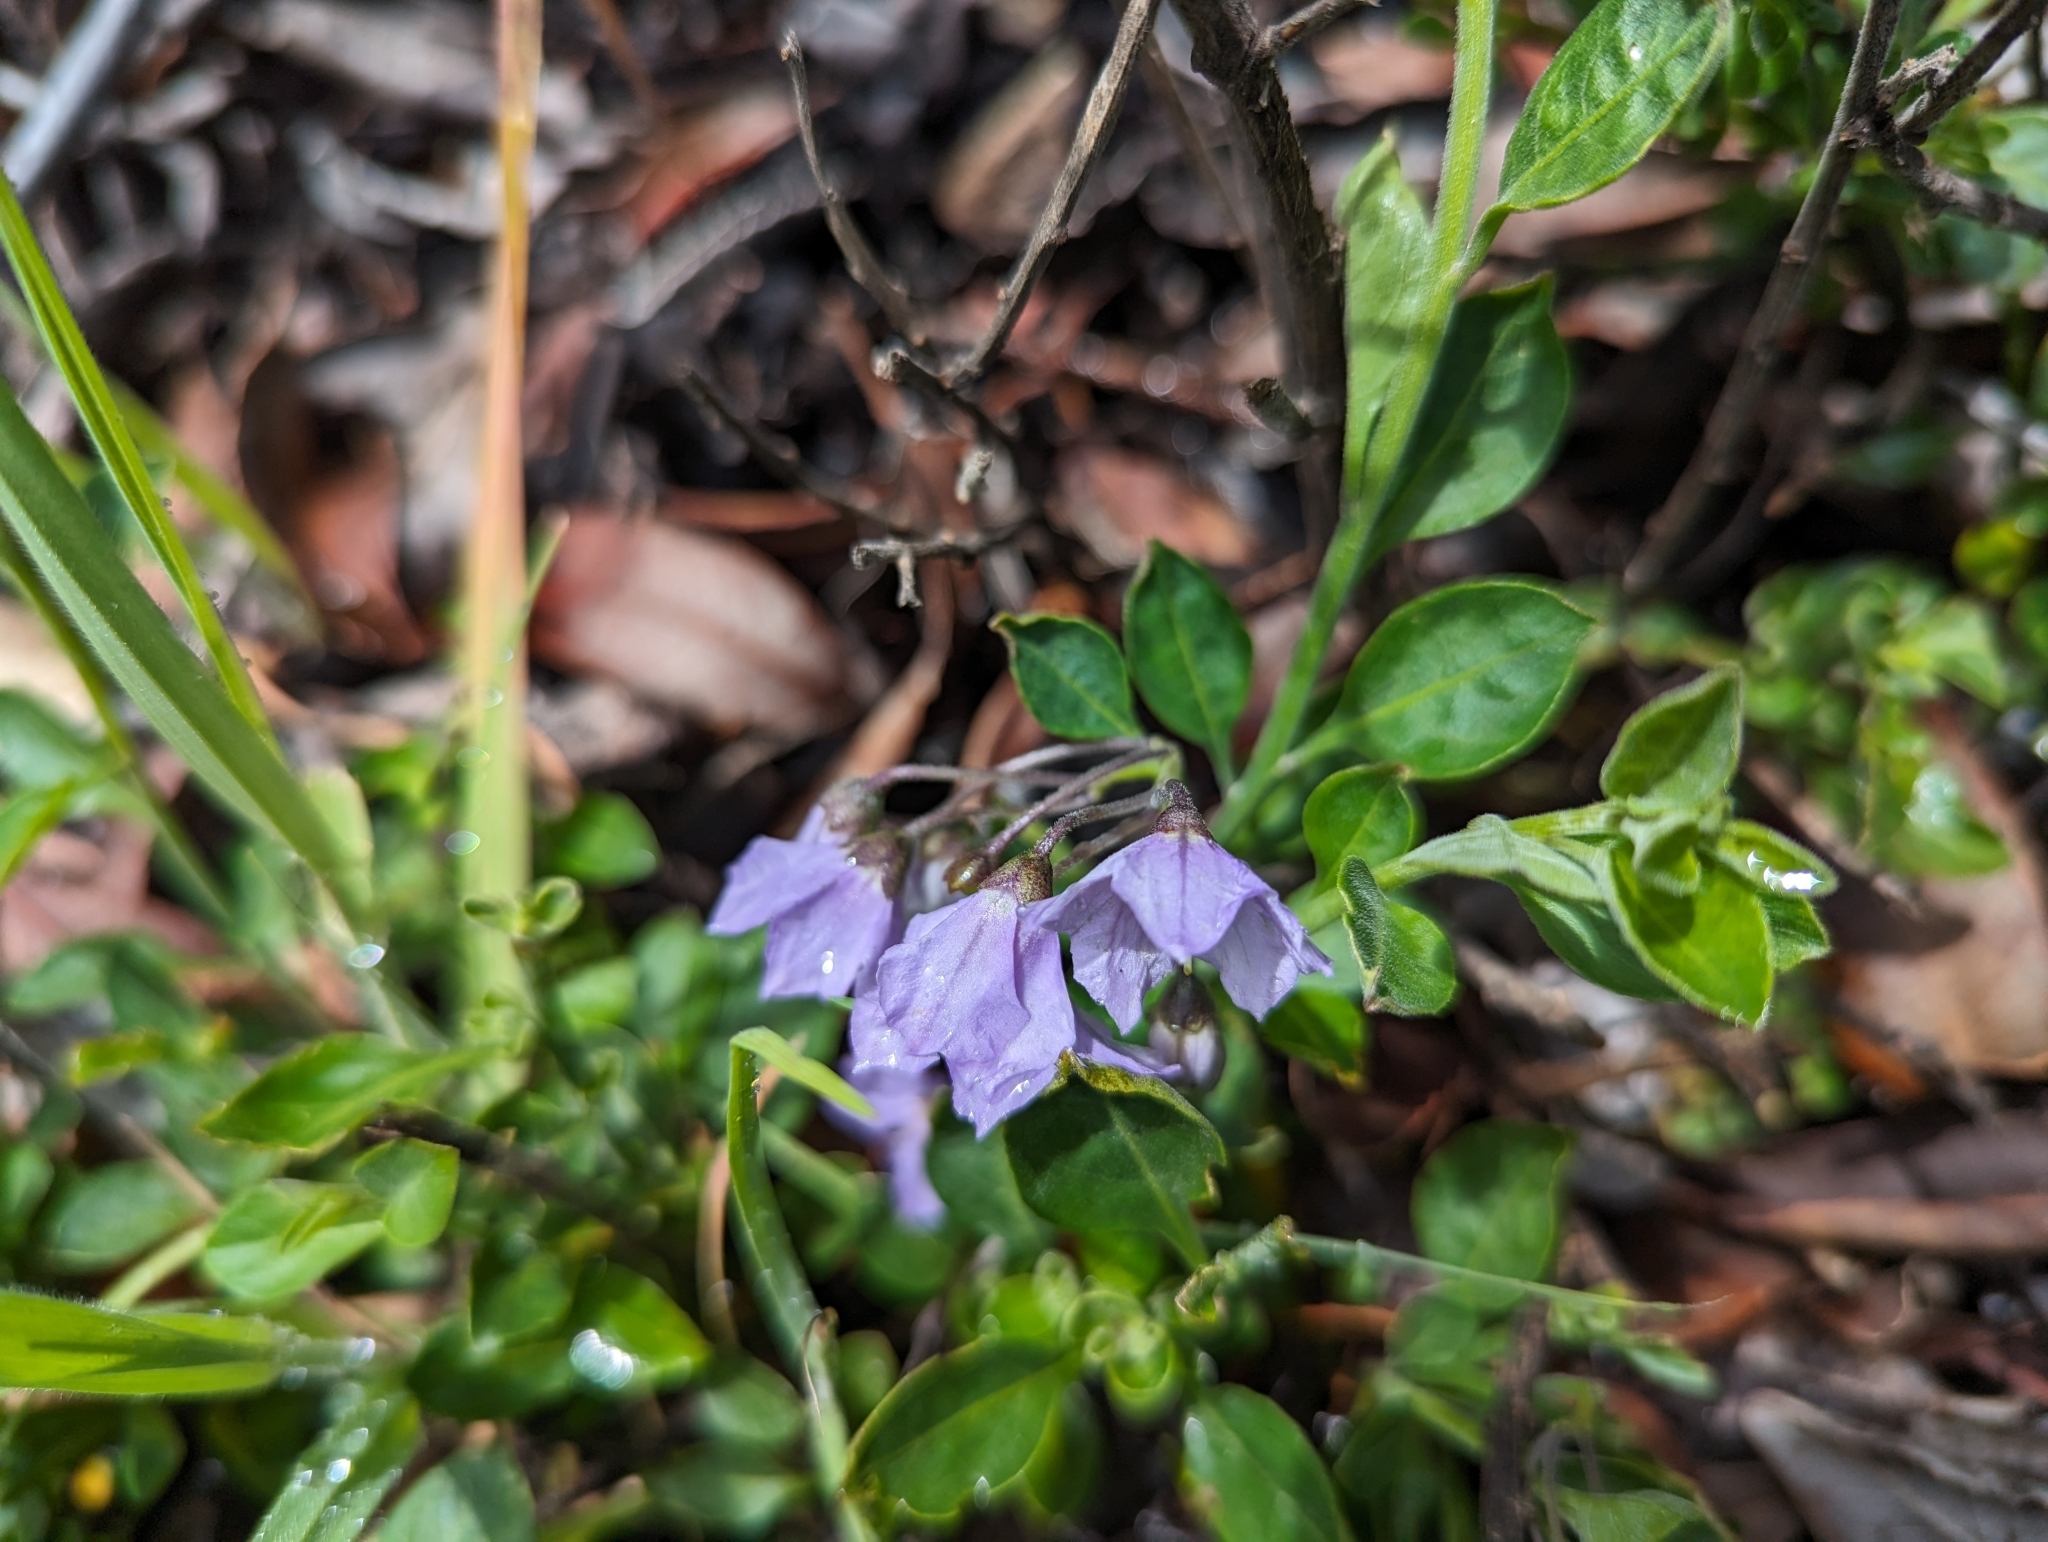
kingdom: Plantae
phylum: Tracheophyta
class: Magnoliopsida
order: Solanales
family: Solanaceae
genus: Solanum
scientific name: Solanum umbelliferum
